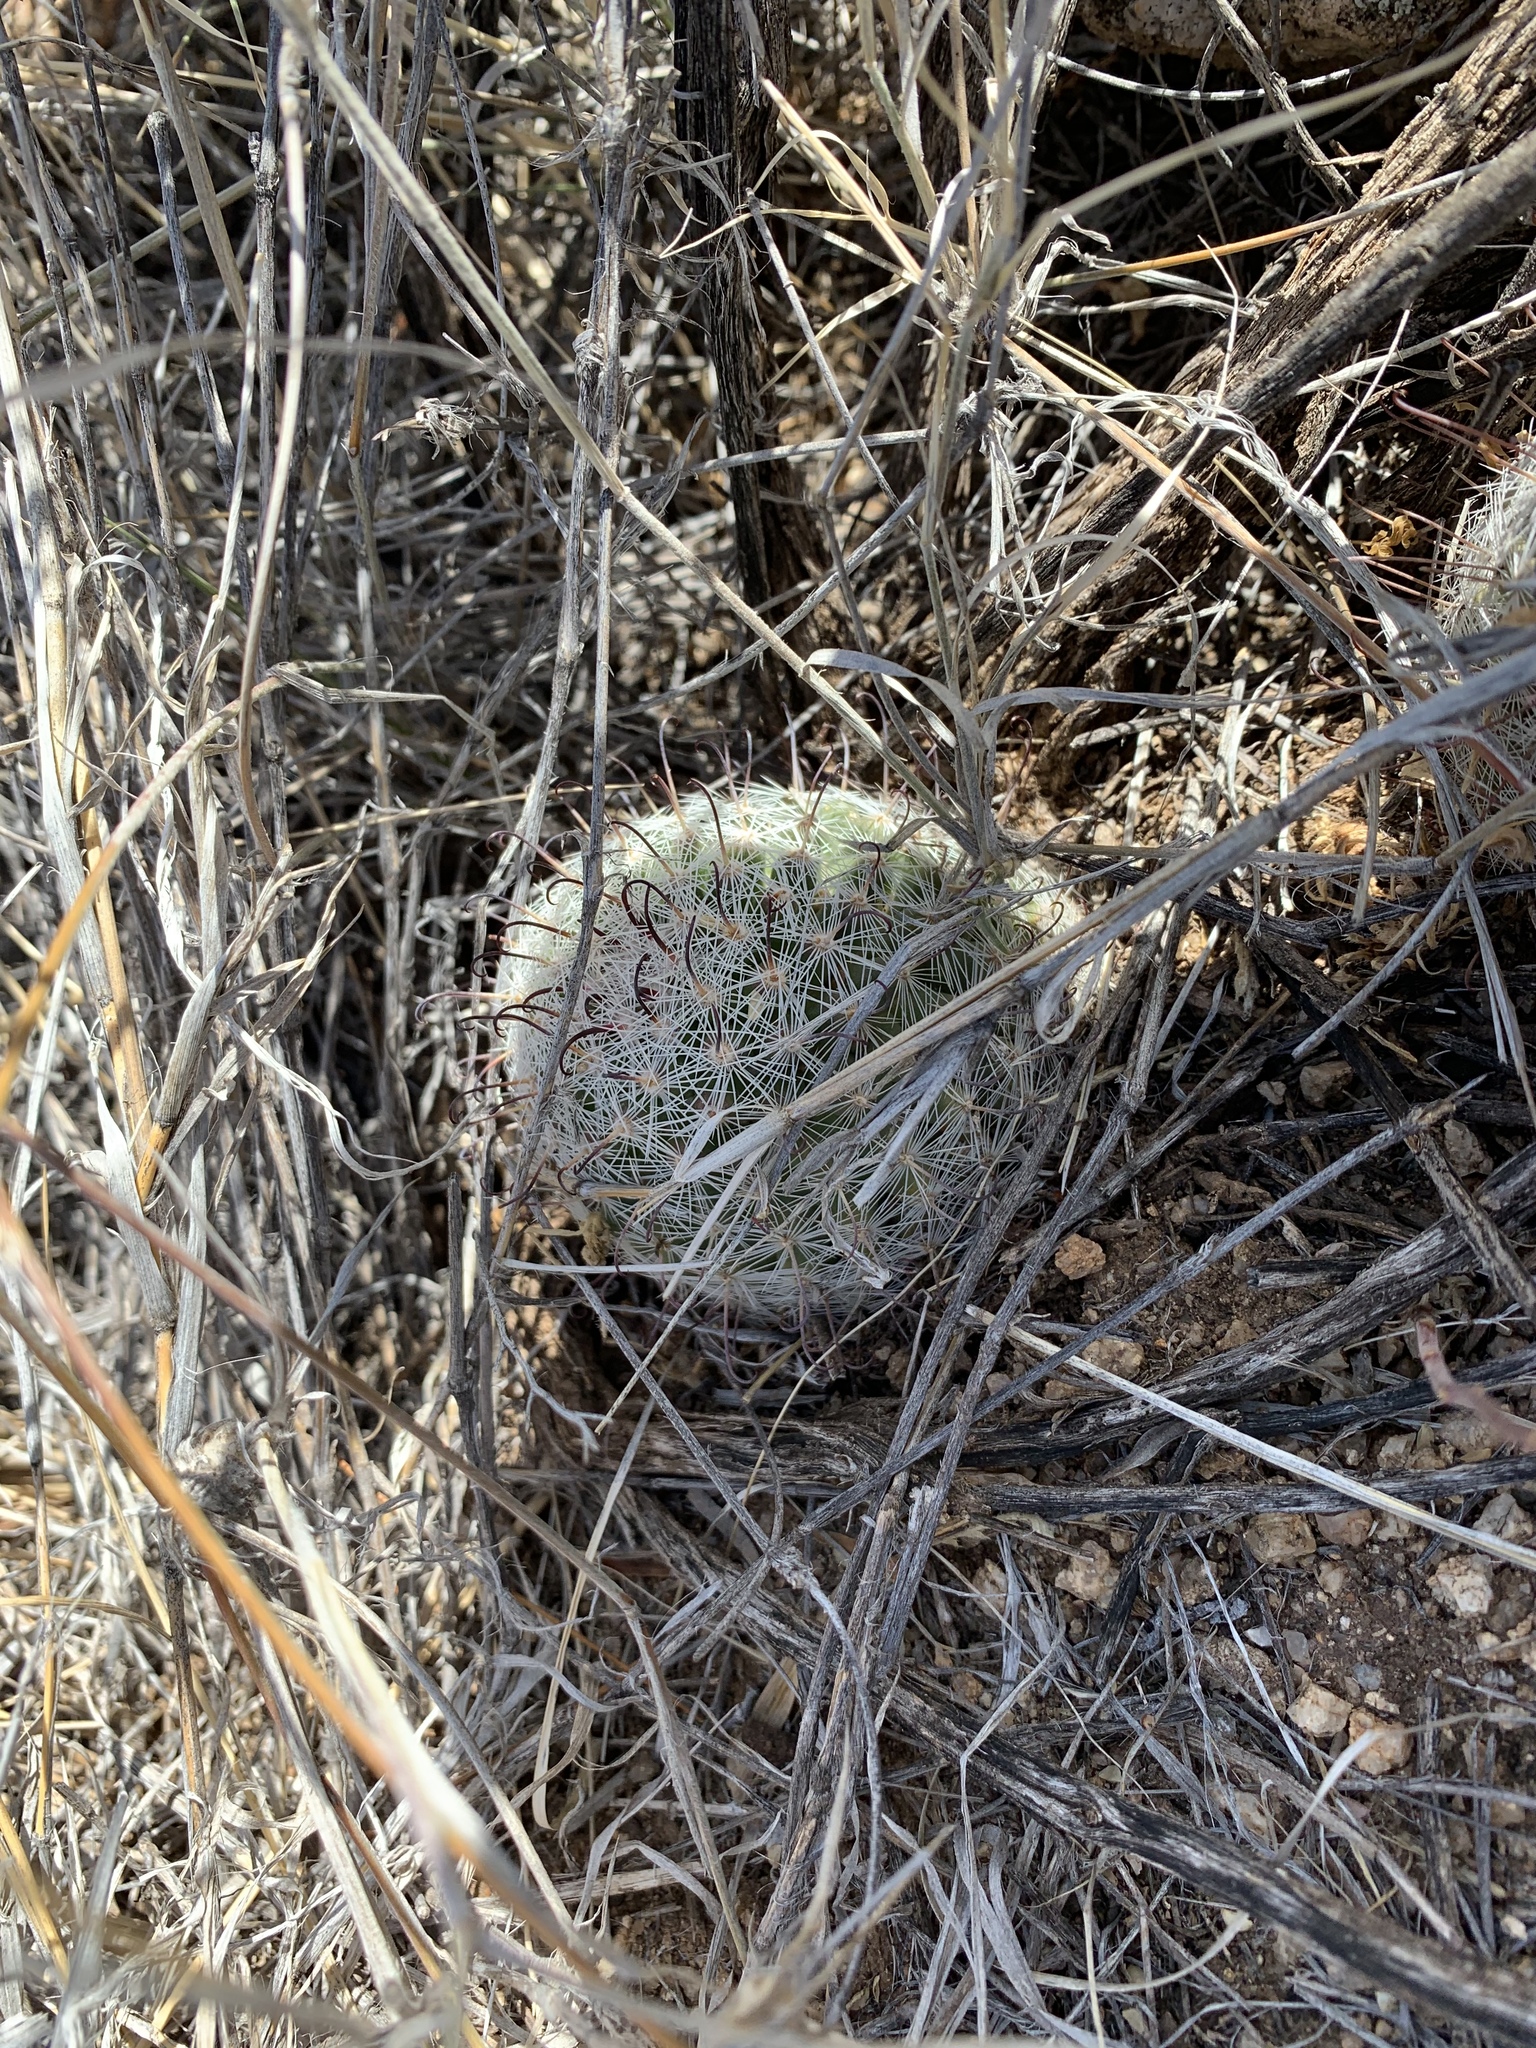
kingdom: Plantae
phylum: Tracheophyta
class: Magnoliopsida
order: Caryophyllales
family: Cactaceae
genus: Cochemiea
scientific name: Cochemiea grahamii
